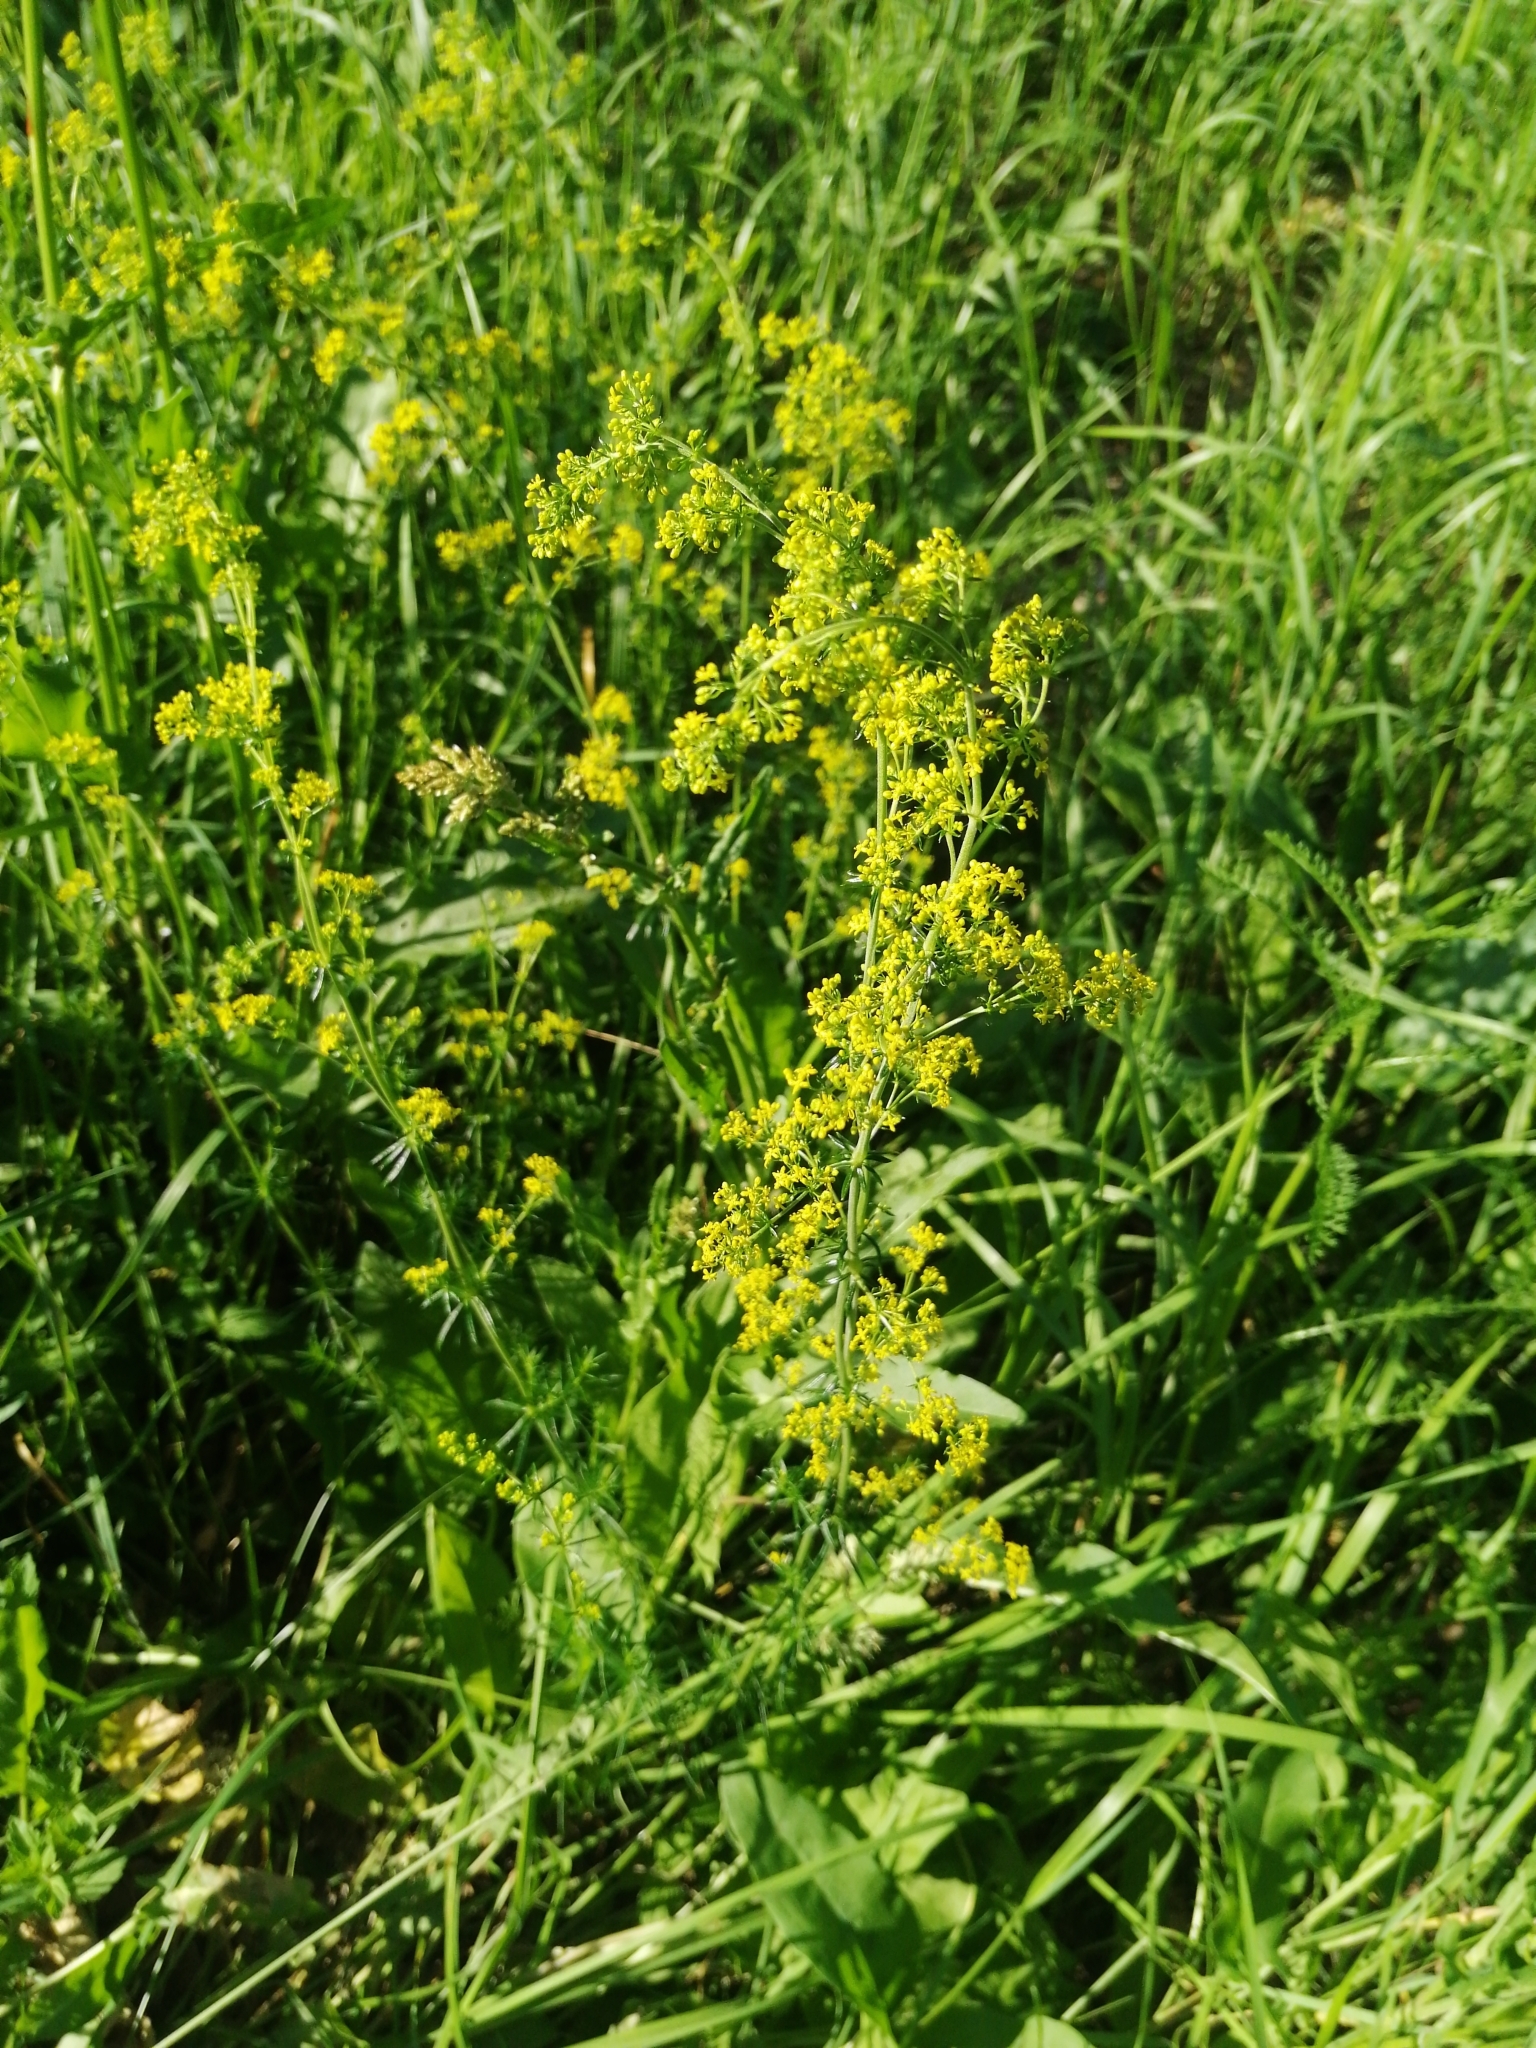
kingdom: Plantae
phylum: Tracheophyta
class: Magnoliopsida
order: Gentianales
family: Rubiaceae
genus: Galium
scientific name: Galium verum
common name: Lady's bedstraw
